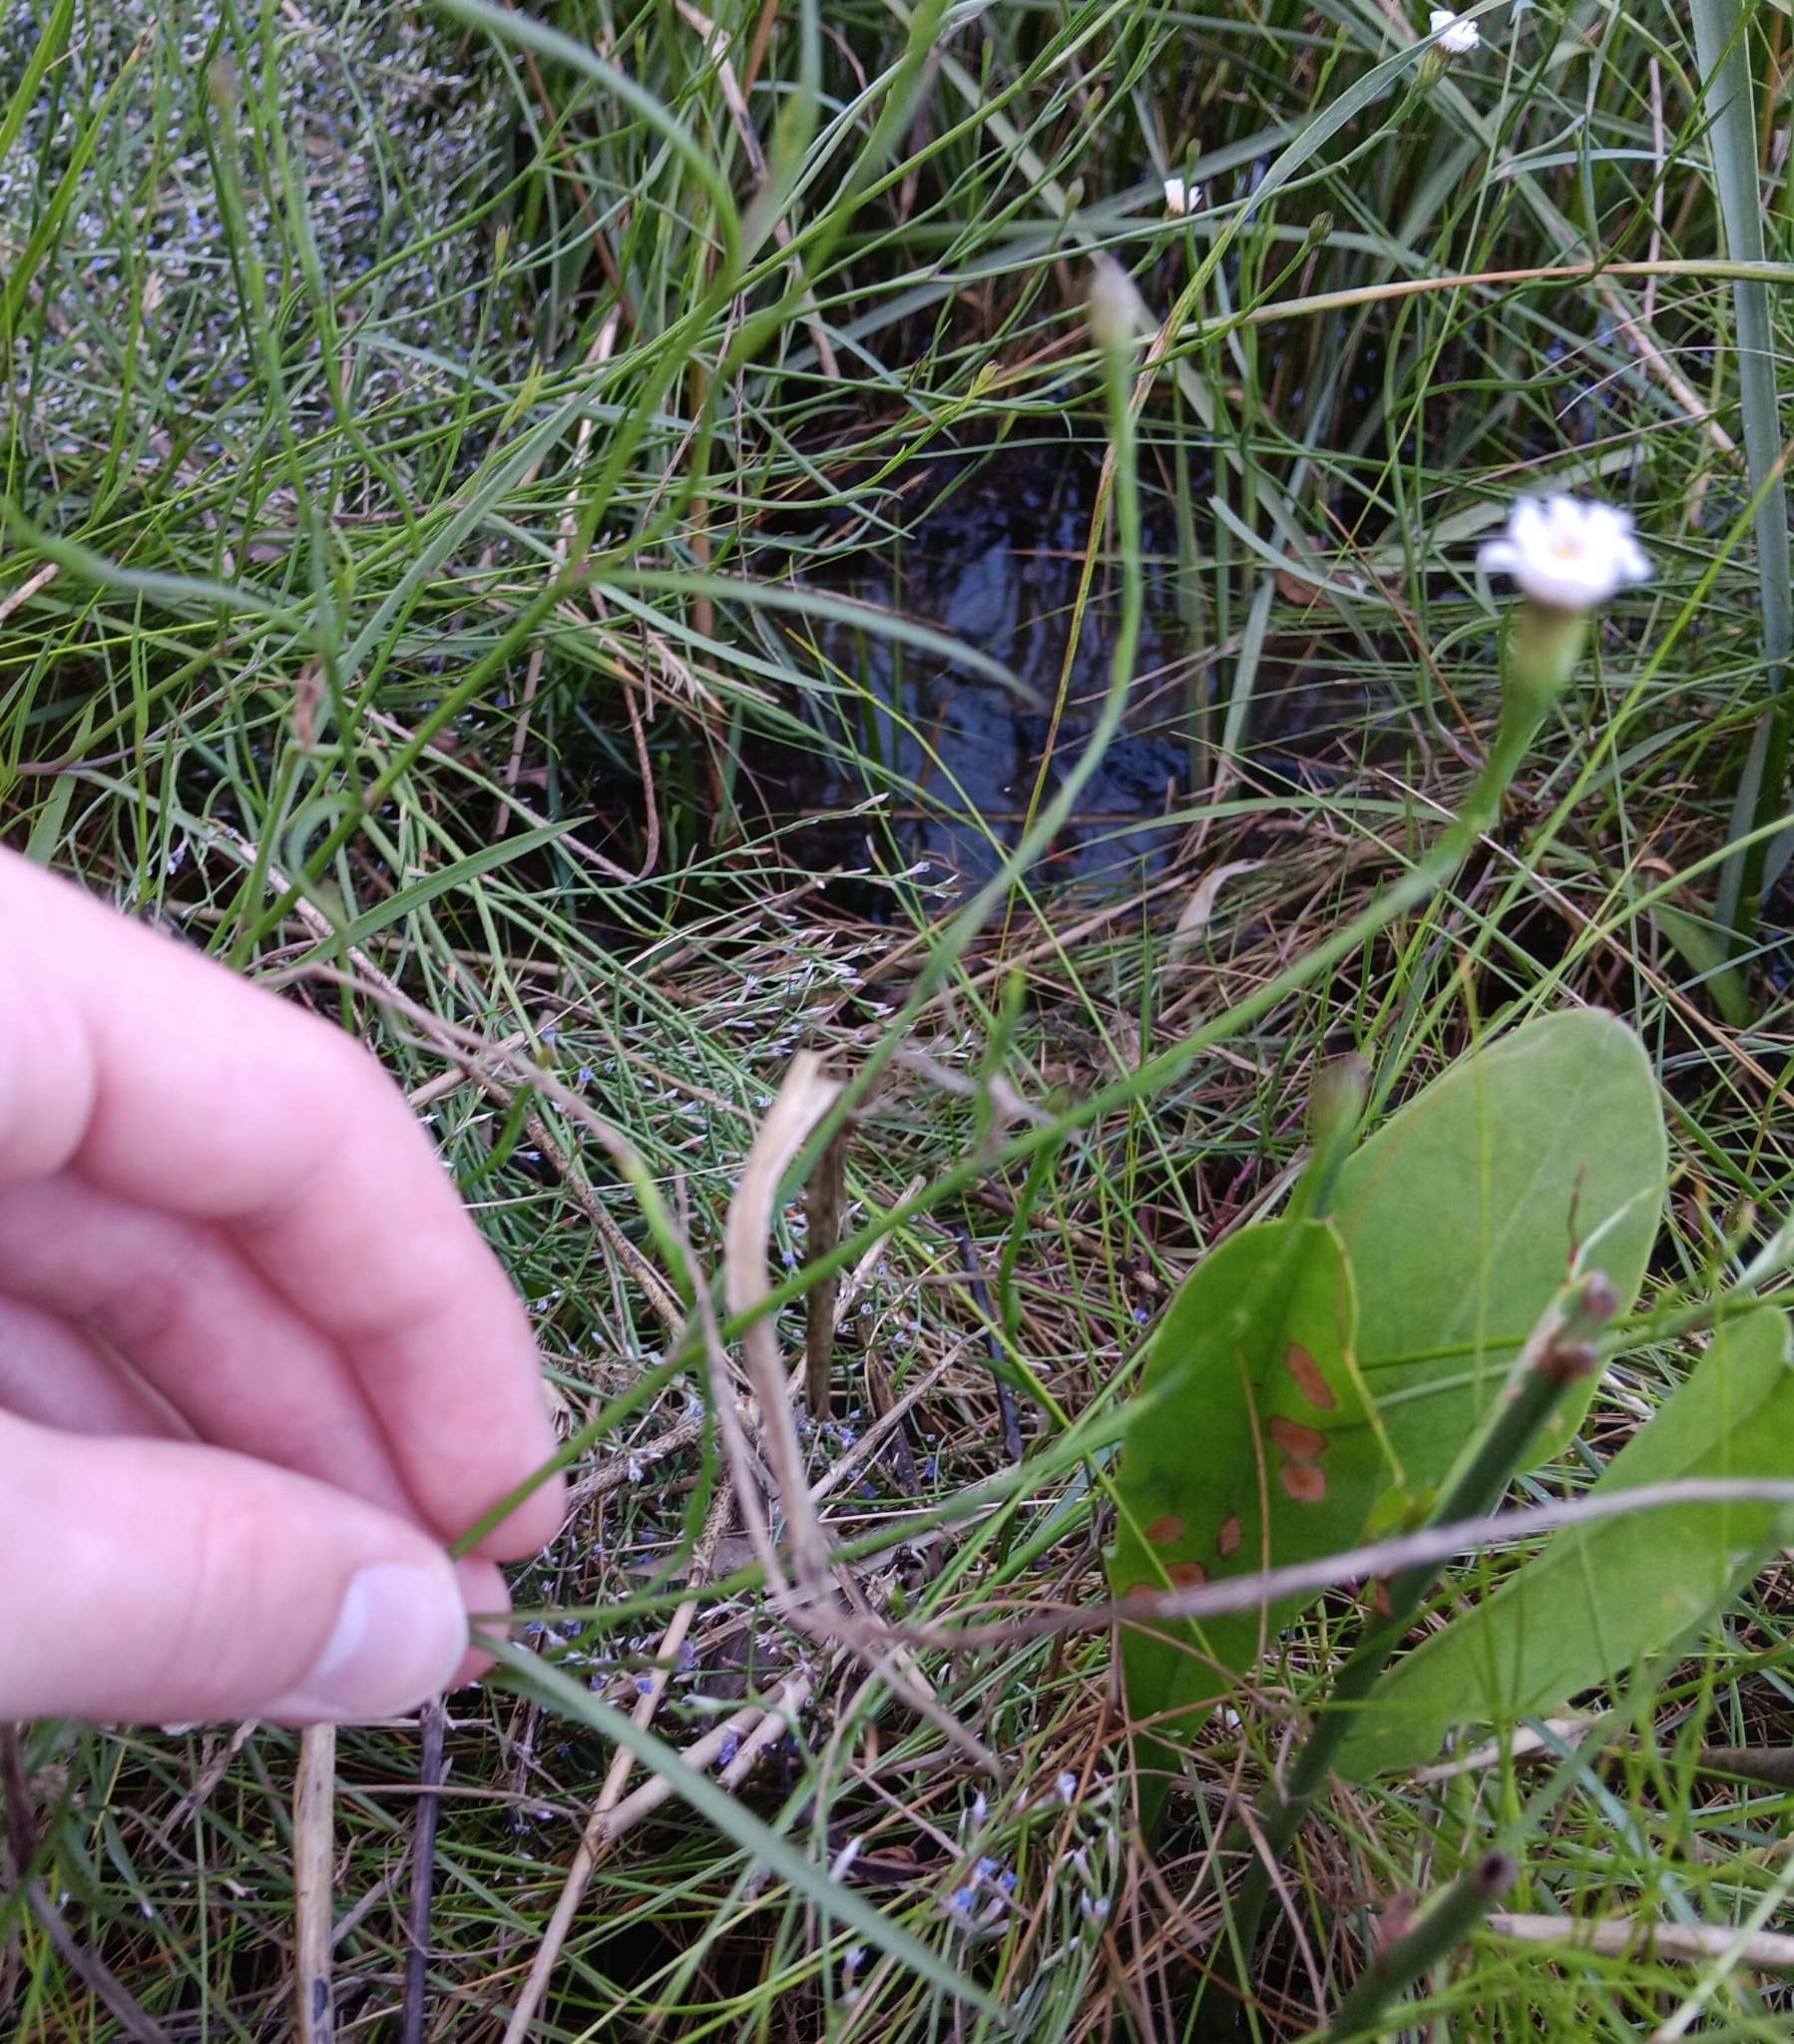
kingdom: Plantae
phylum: Tracheophyta
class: Magnoliopsida
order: Asterales
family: Asteraceae
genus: Symphyotrichum
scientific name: Symphyotrichum tenuifolium
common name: Perennial salt-marsh aster
